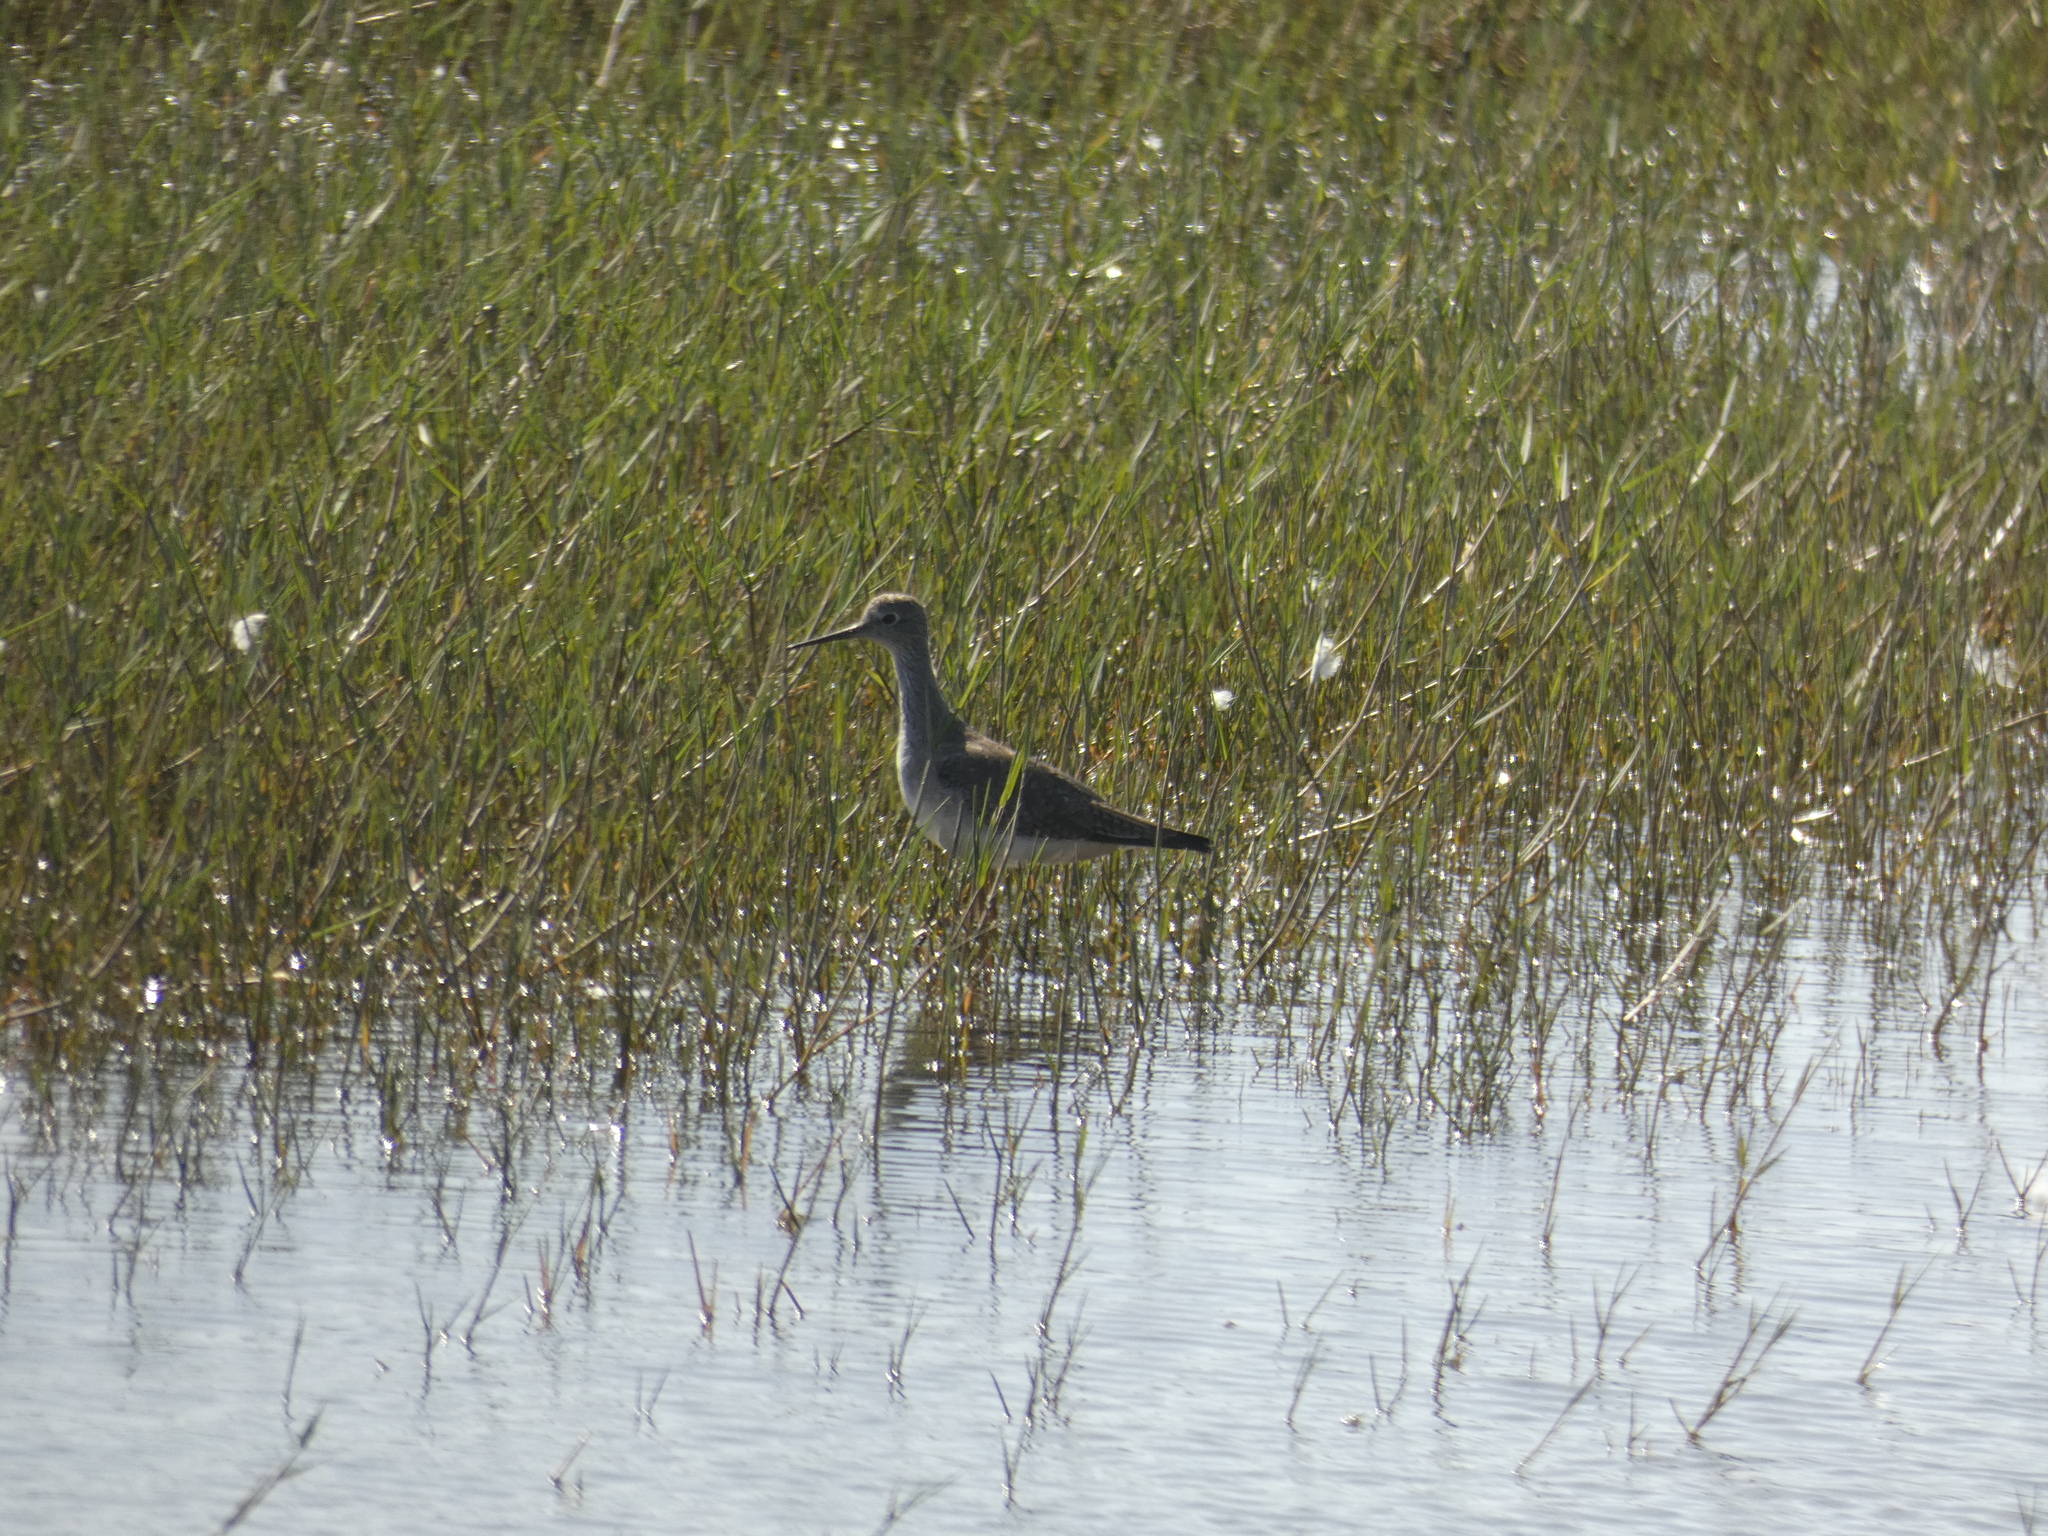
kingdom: Animalia
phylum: Chordata
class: Aves
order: Charadriiformes
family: Scolopacidae
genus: Tringa
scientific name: Tringa melanoleuca
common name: Greater yellowlegs
